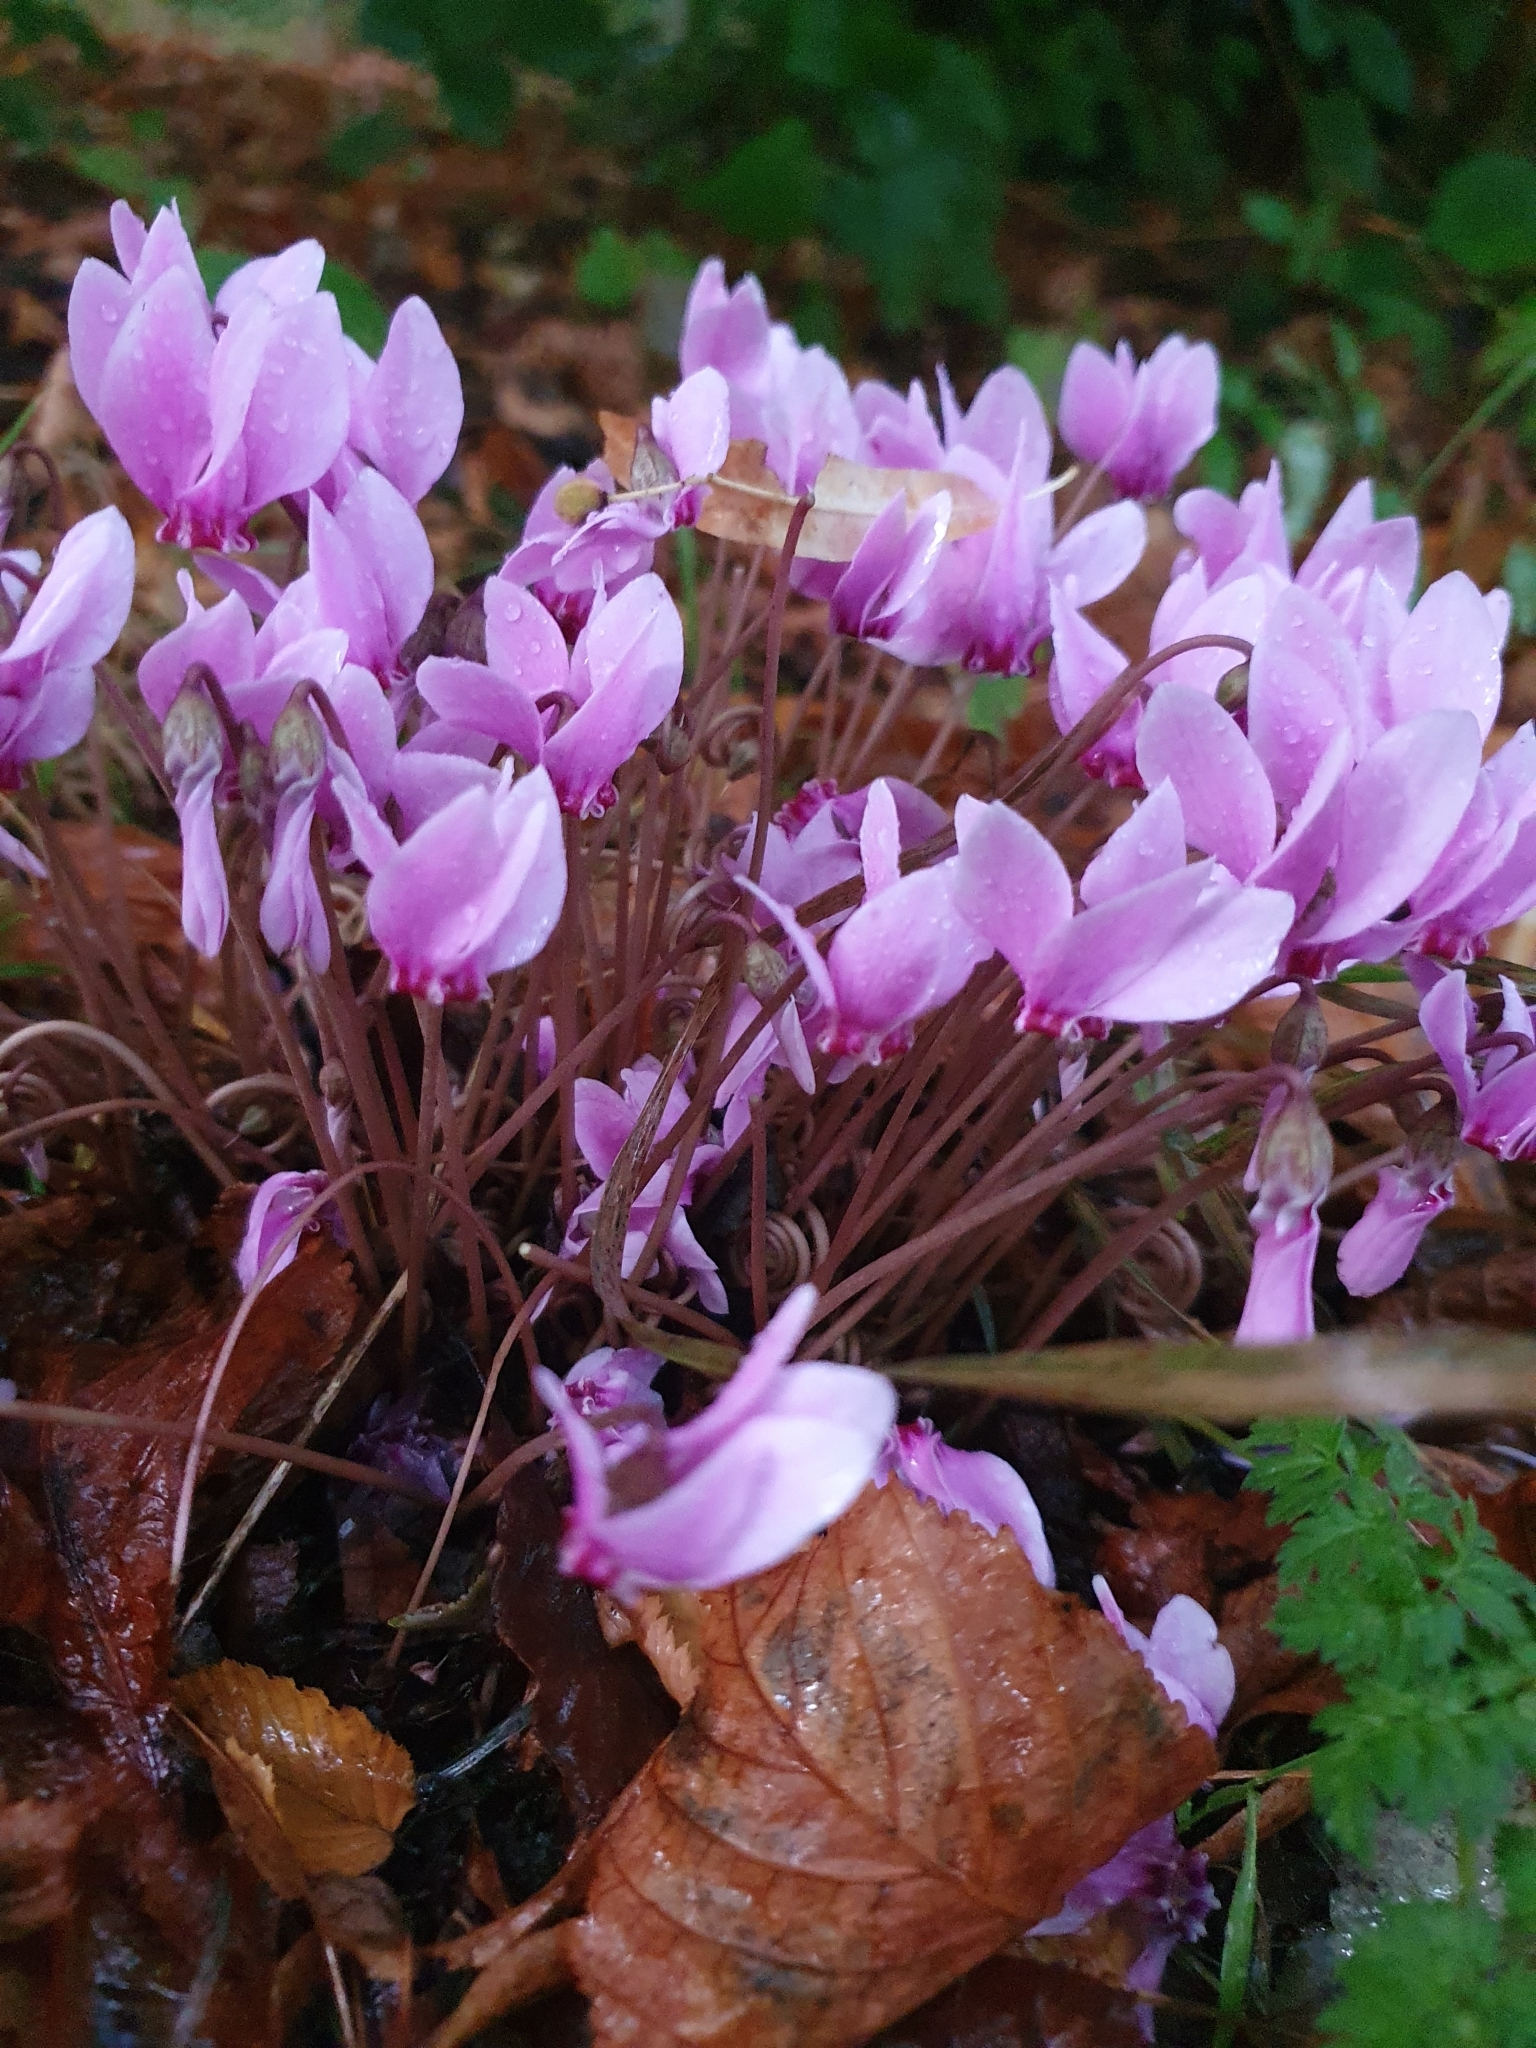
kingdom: Plantae
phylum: Tracheophyta
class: Magnoliopsida
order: Ericales
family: Primulaceae
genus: Cyclamen
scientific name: Cyclamen hederifolium
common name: Sowbread
